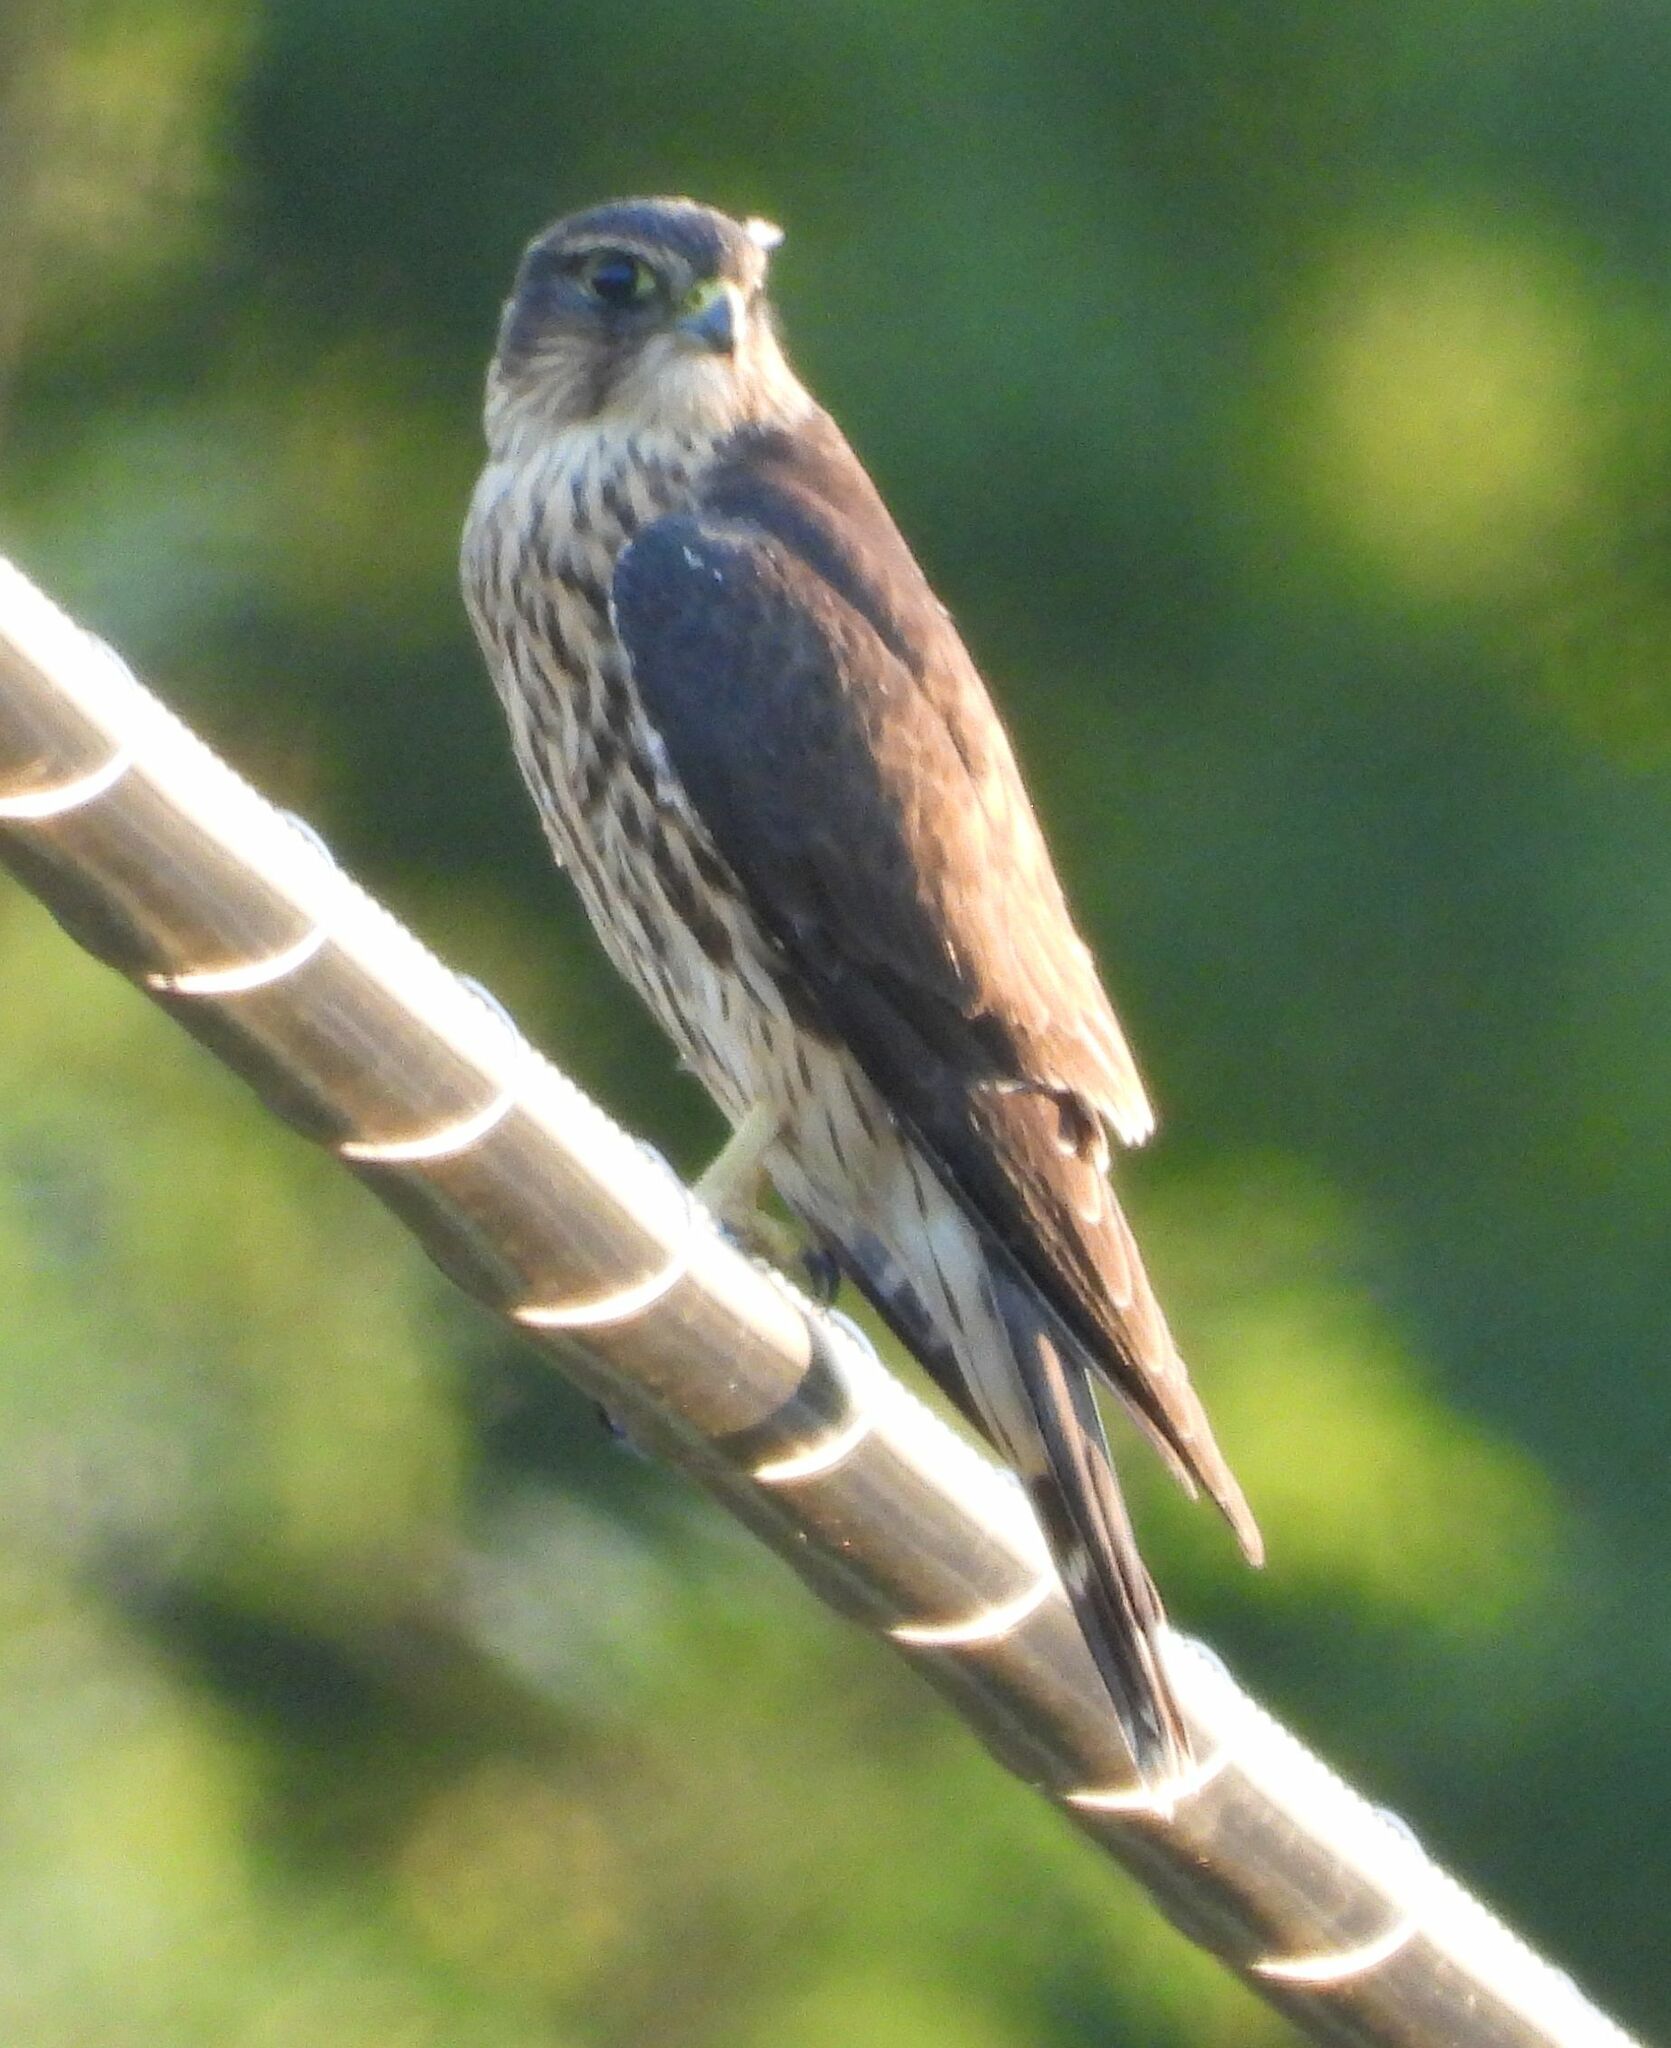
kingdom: Animalia
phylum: Chordata
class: Aves
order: Falconiformes
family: Falconidae
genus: Falco
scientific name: Falco columbarius
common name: Merlin
